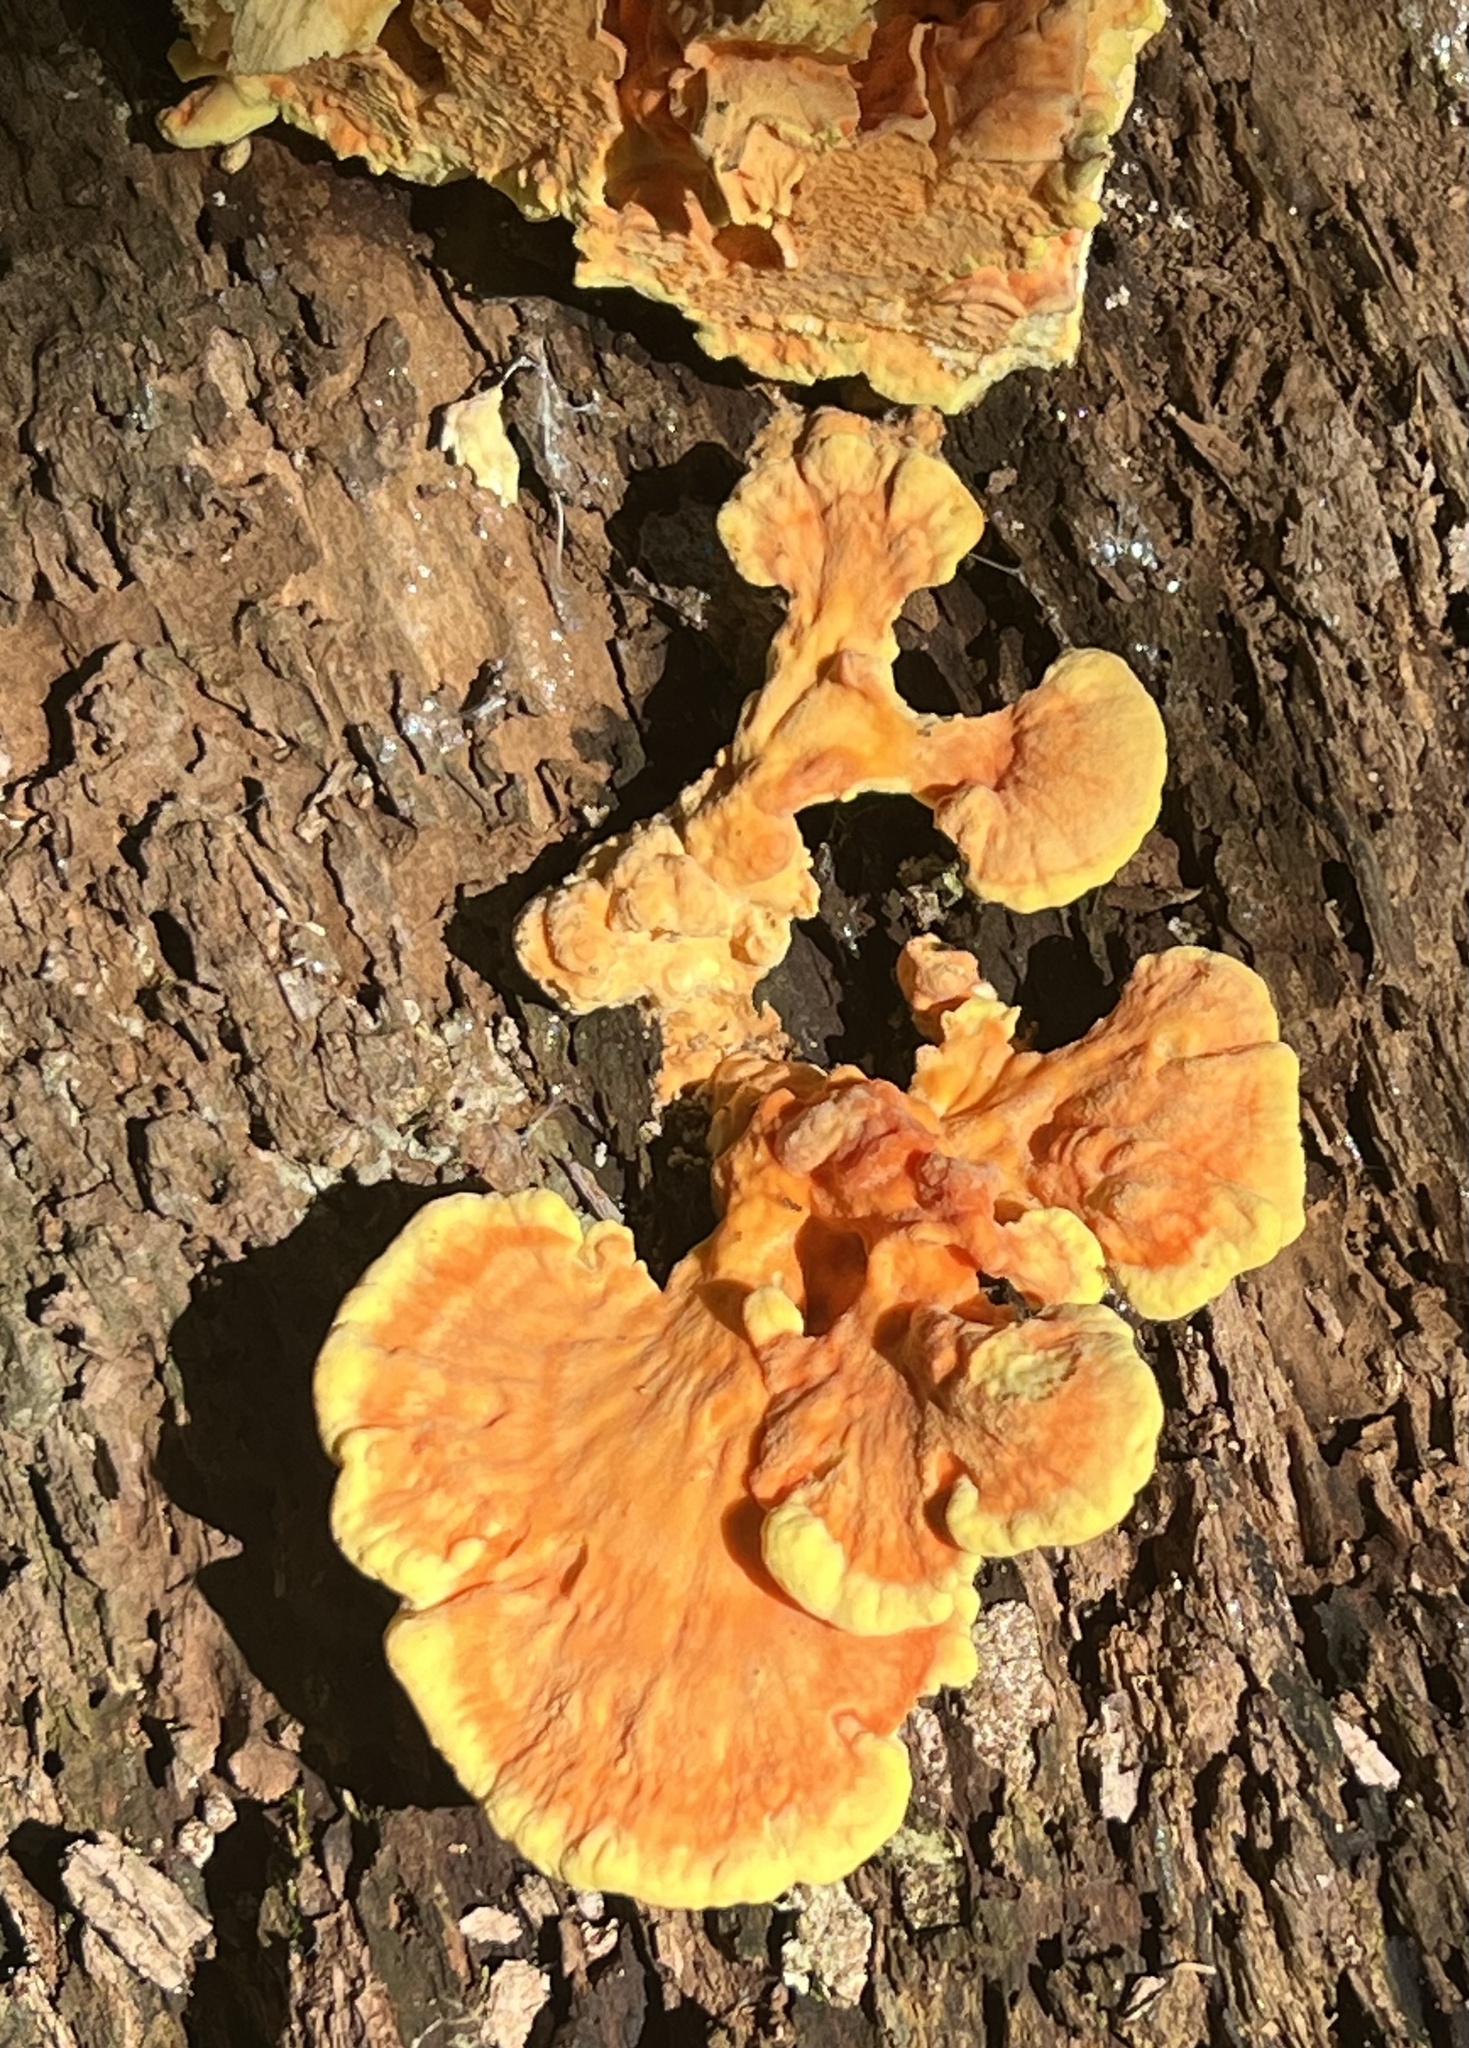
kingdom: Fungi
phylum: Basidiomycota
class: Agaricomycetes
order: Polyporales
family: Laetiporaceae
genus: Laetiporus
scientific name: Laetiporus sulphureus
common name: Chicken of the woods
